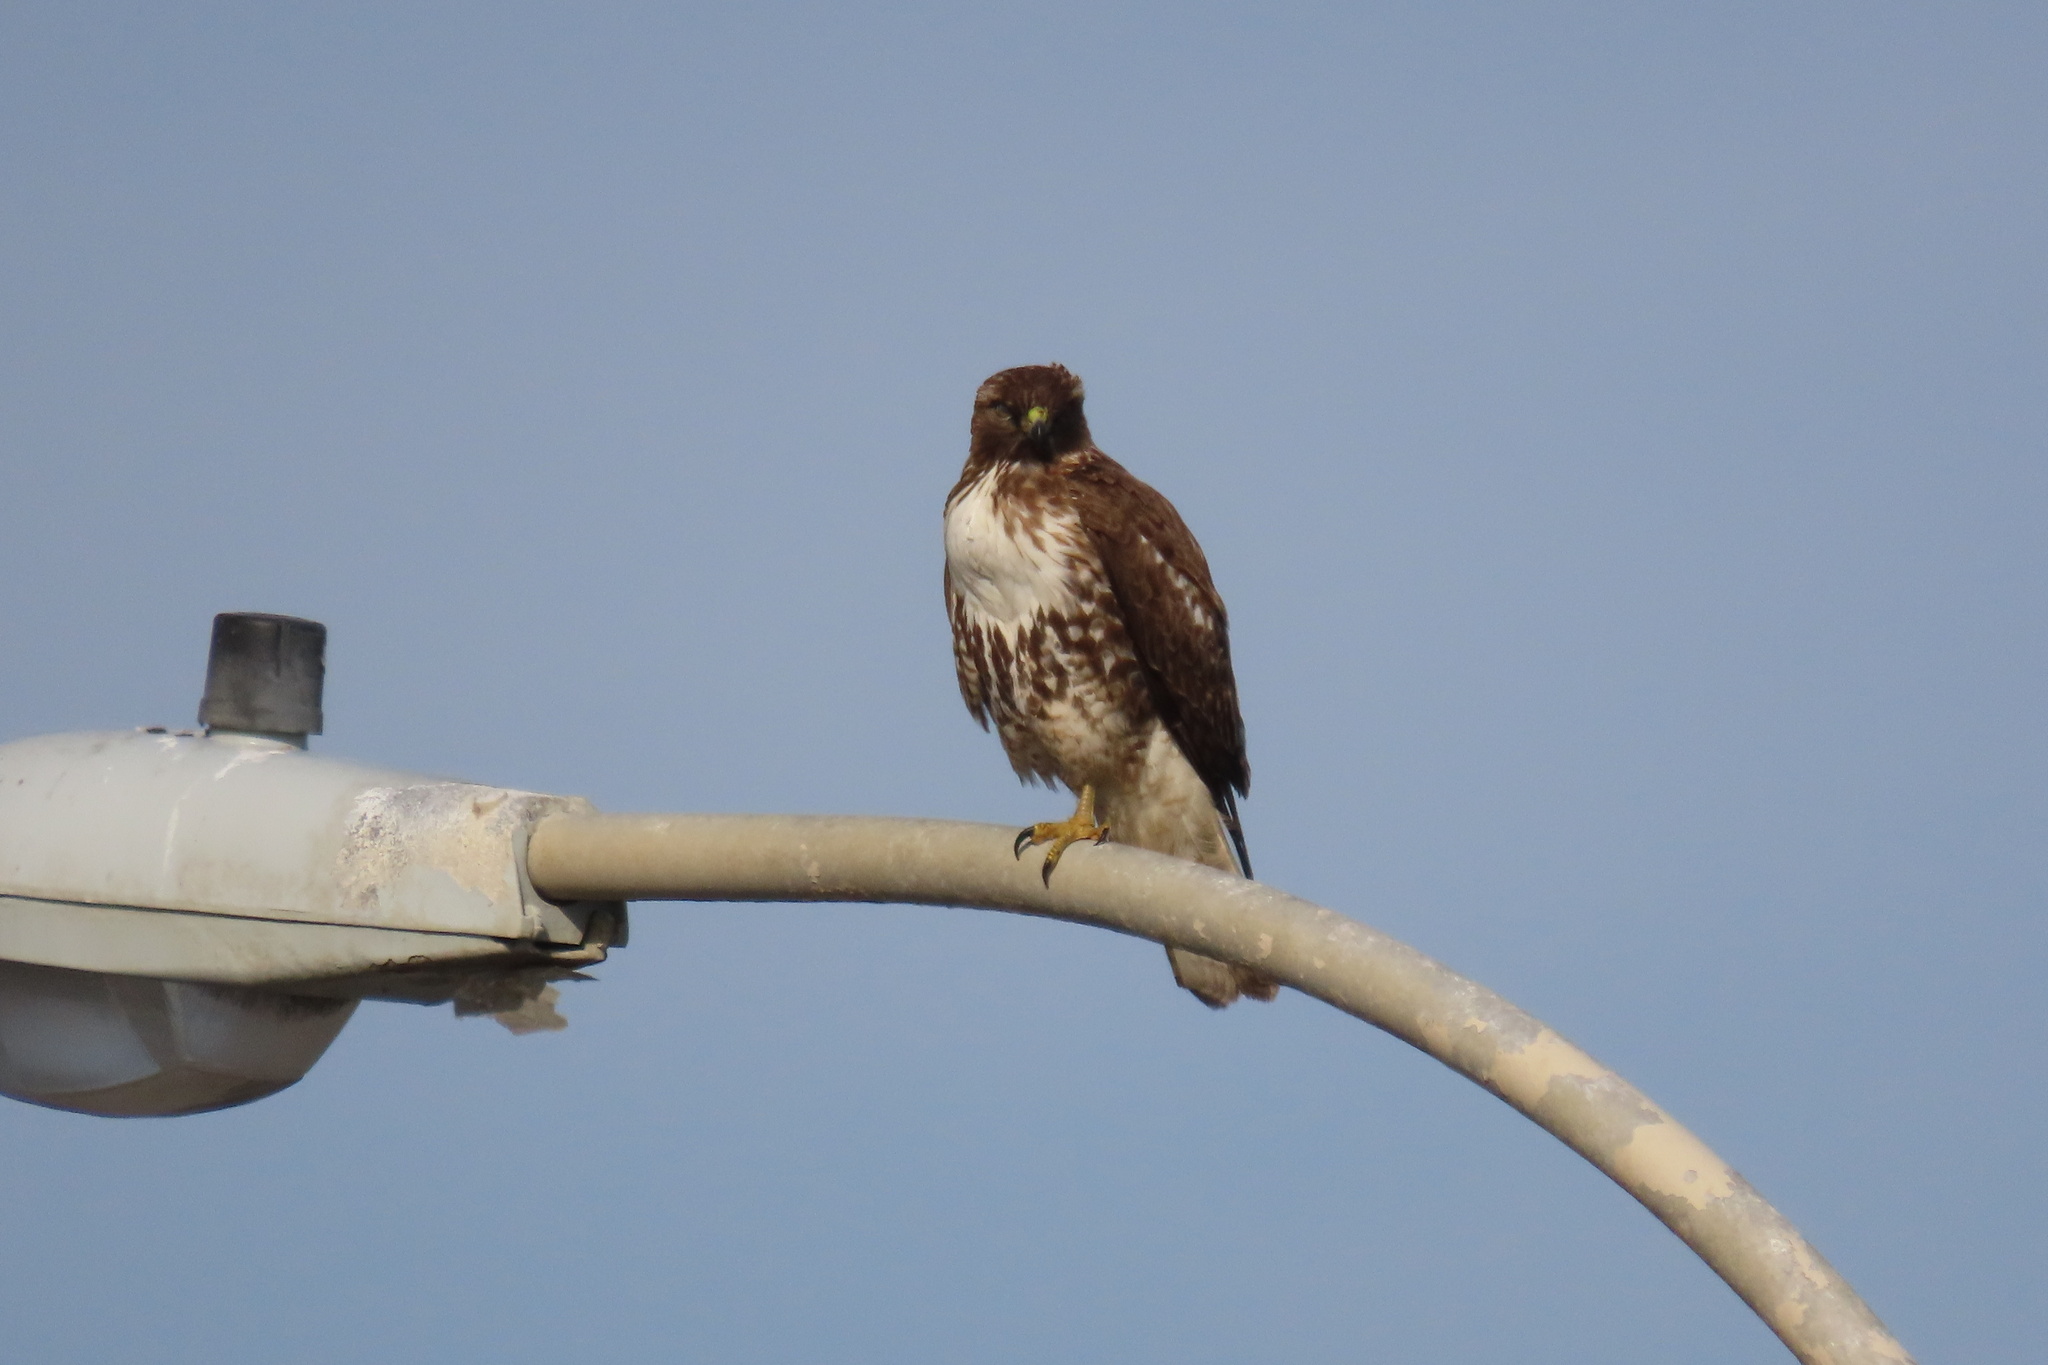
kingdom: Animalia
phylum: Chordata
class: Aves
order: Accipitriformes
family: Accipitridae
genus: Buteo
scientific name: Buteo jamaicensis
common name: Red-tailed hawk
